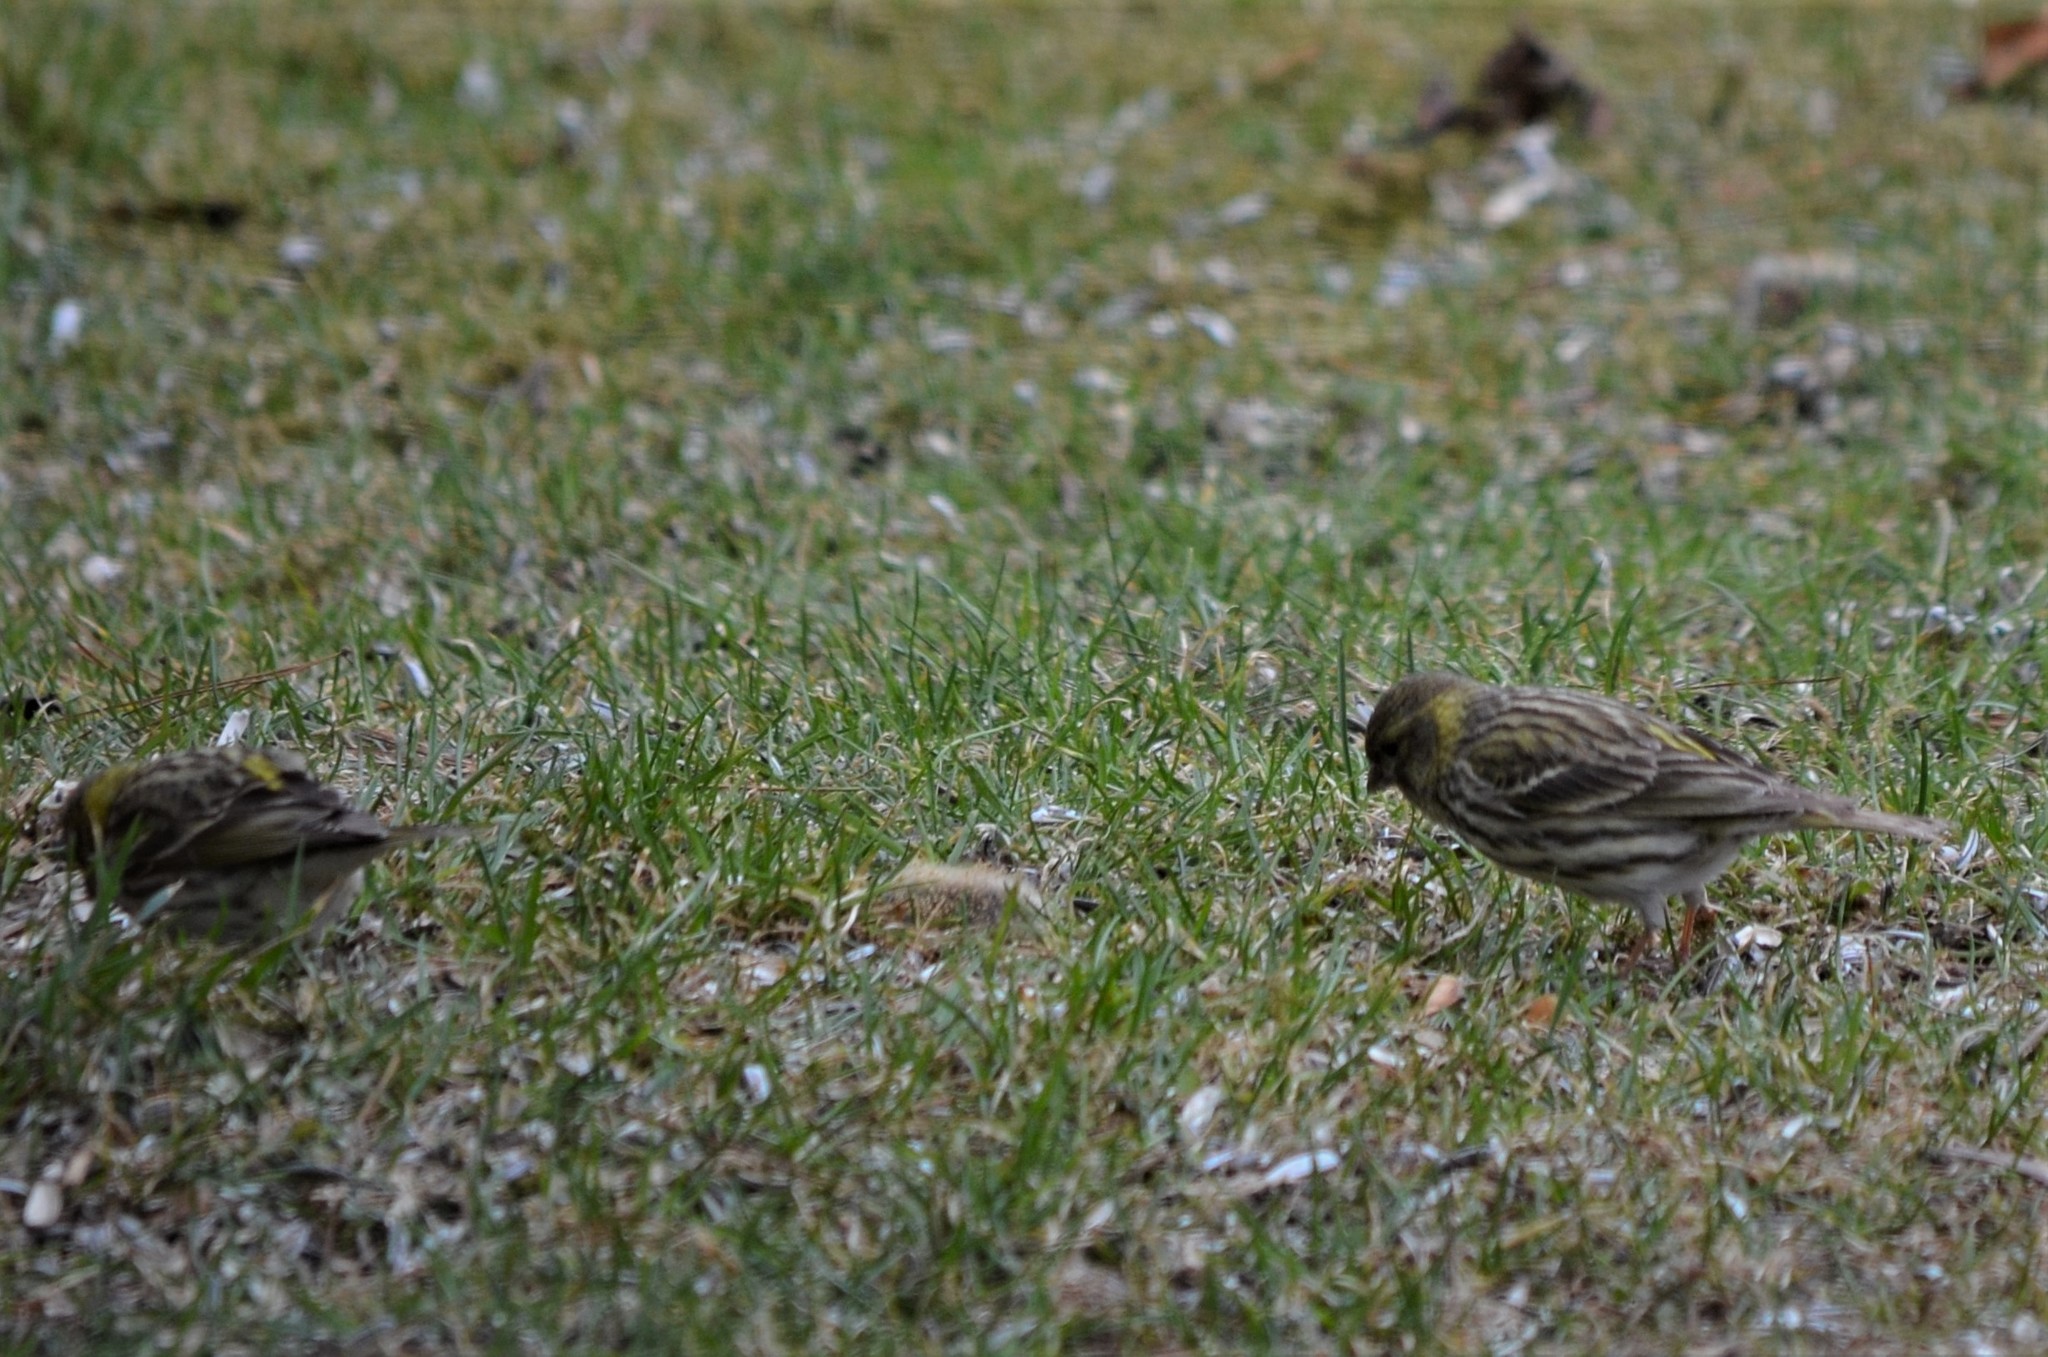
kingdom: Animalia
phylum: Chordata
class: Aves
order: Passeriformes
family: Fringillidae
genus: Serinus
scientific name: Serinus serinus
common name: European serin
